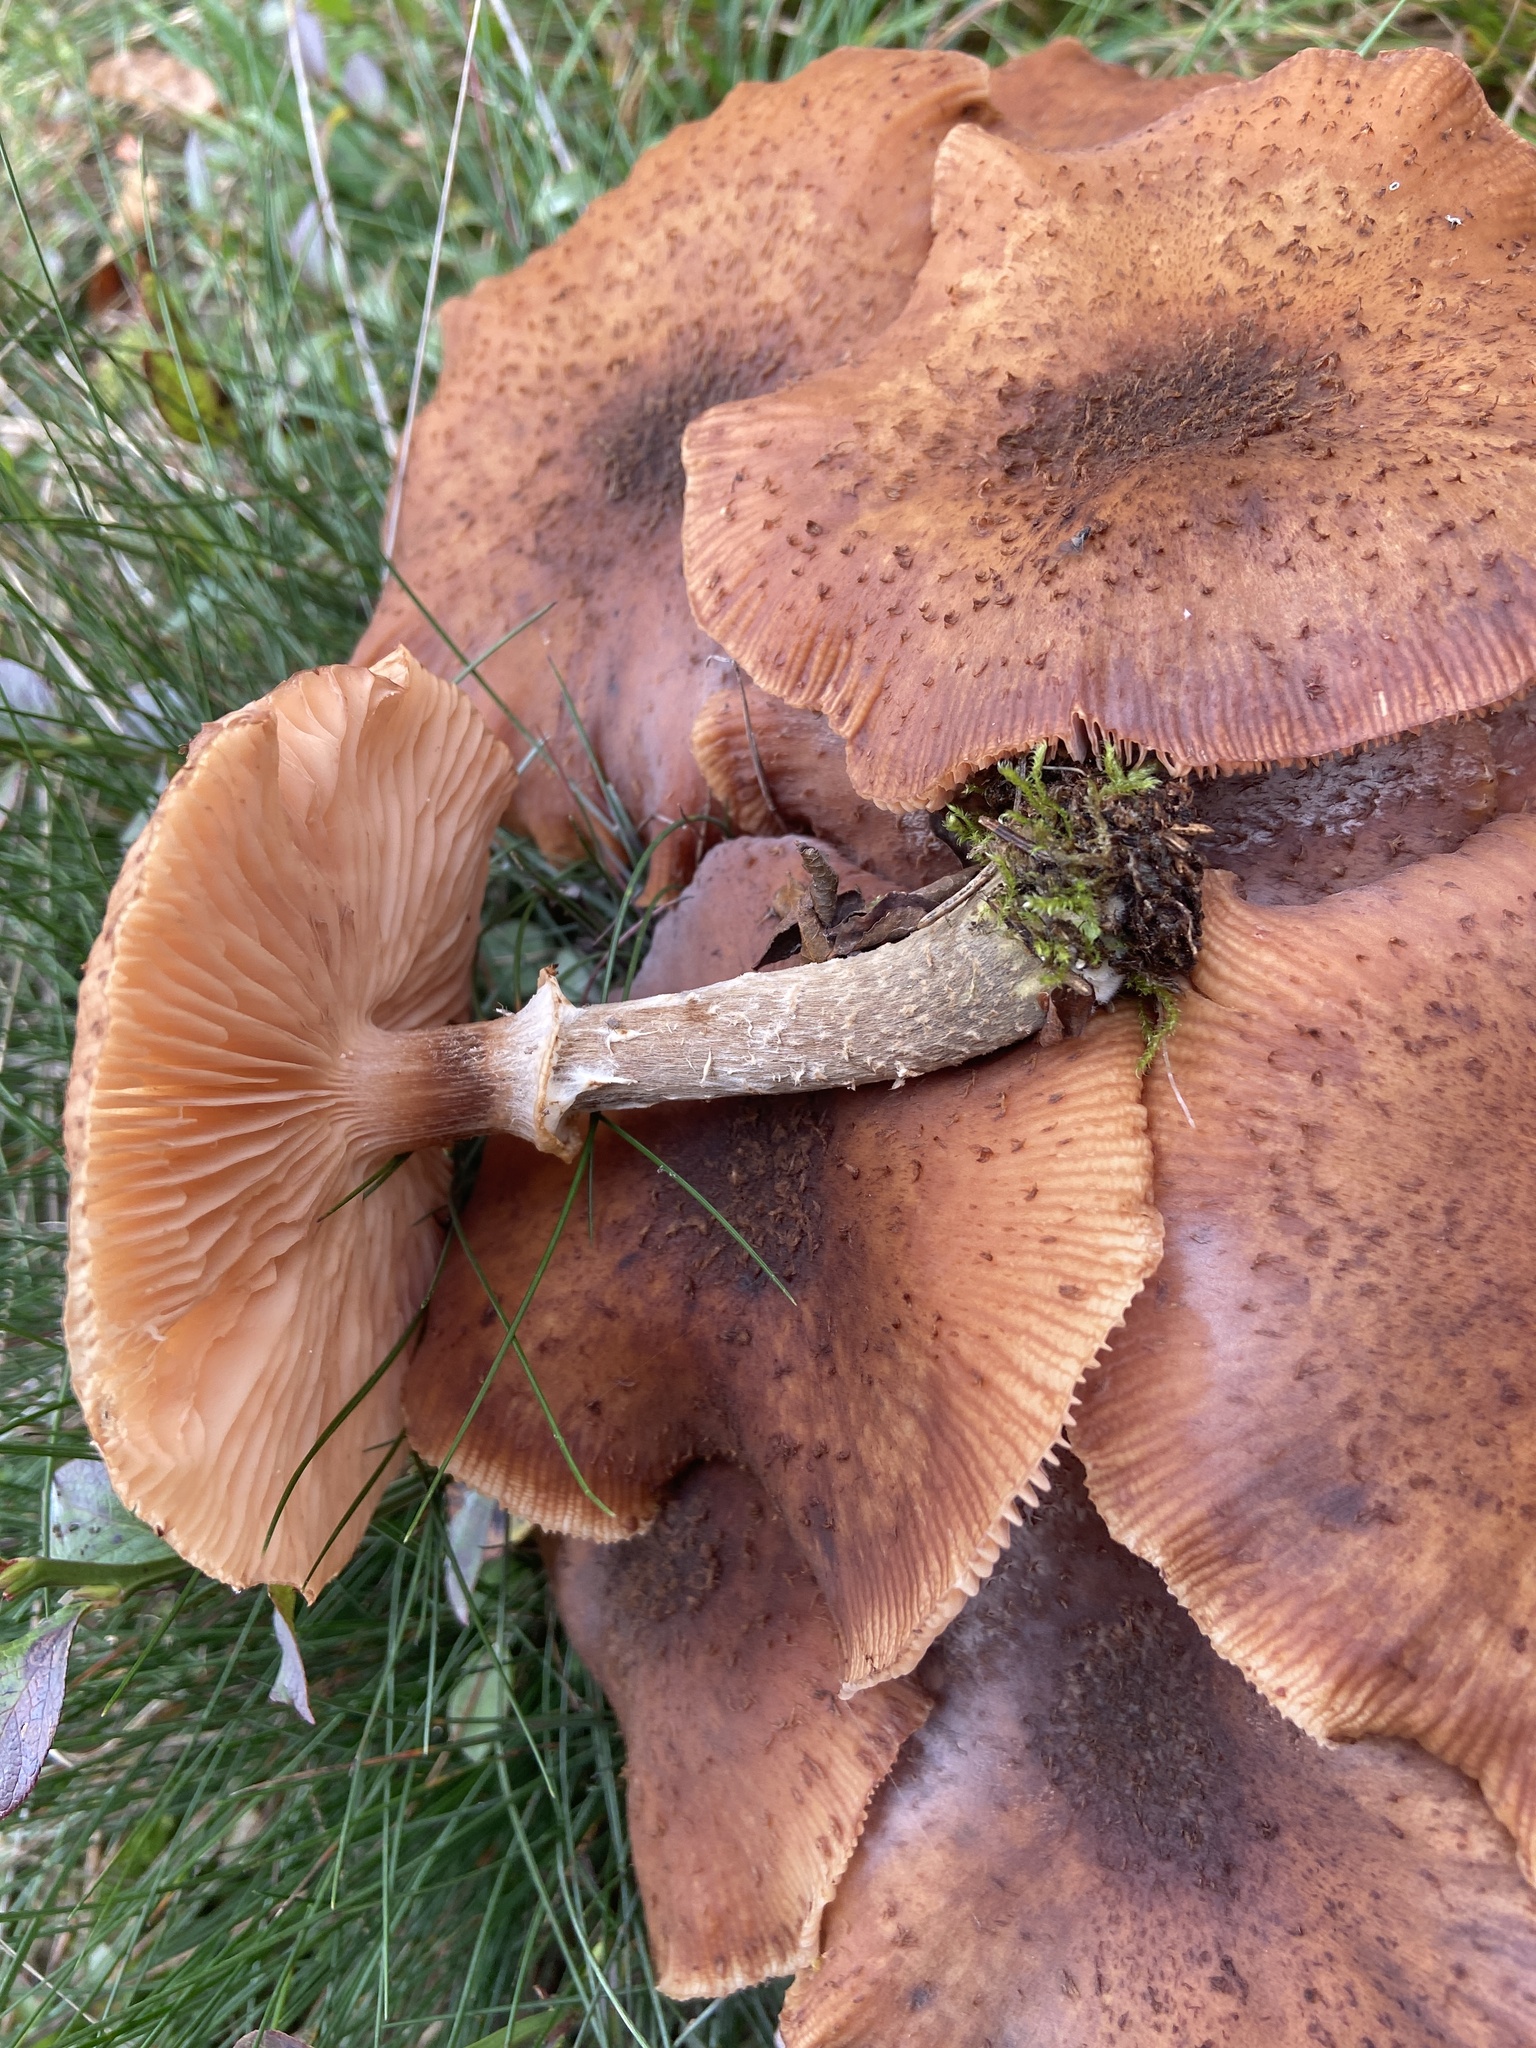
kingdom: Fungi
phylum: Basidiomycota
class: Agaricomycetes
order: Agaricales
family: Physalacriaceae
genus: Armillaria
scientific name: Armillaria ostoyae
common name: Dark honey fungus
